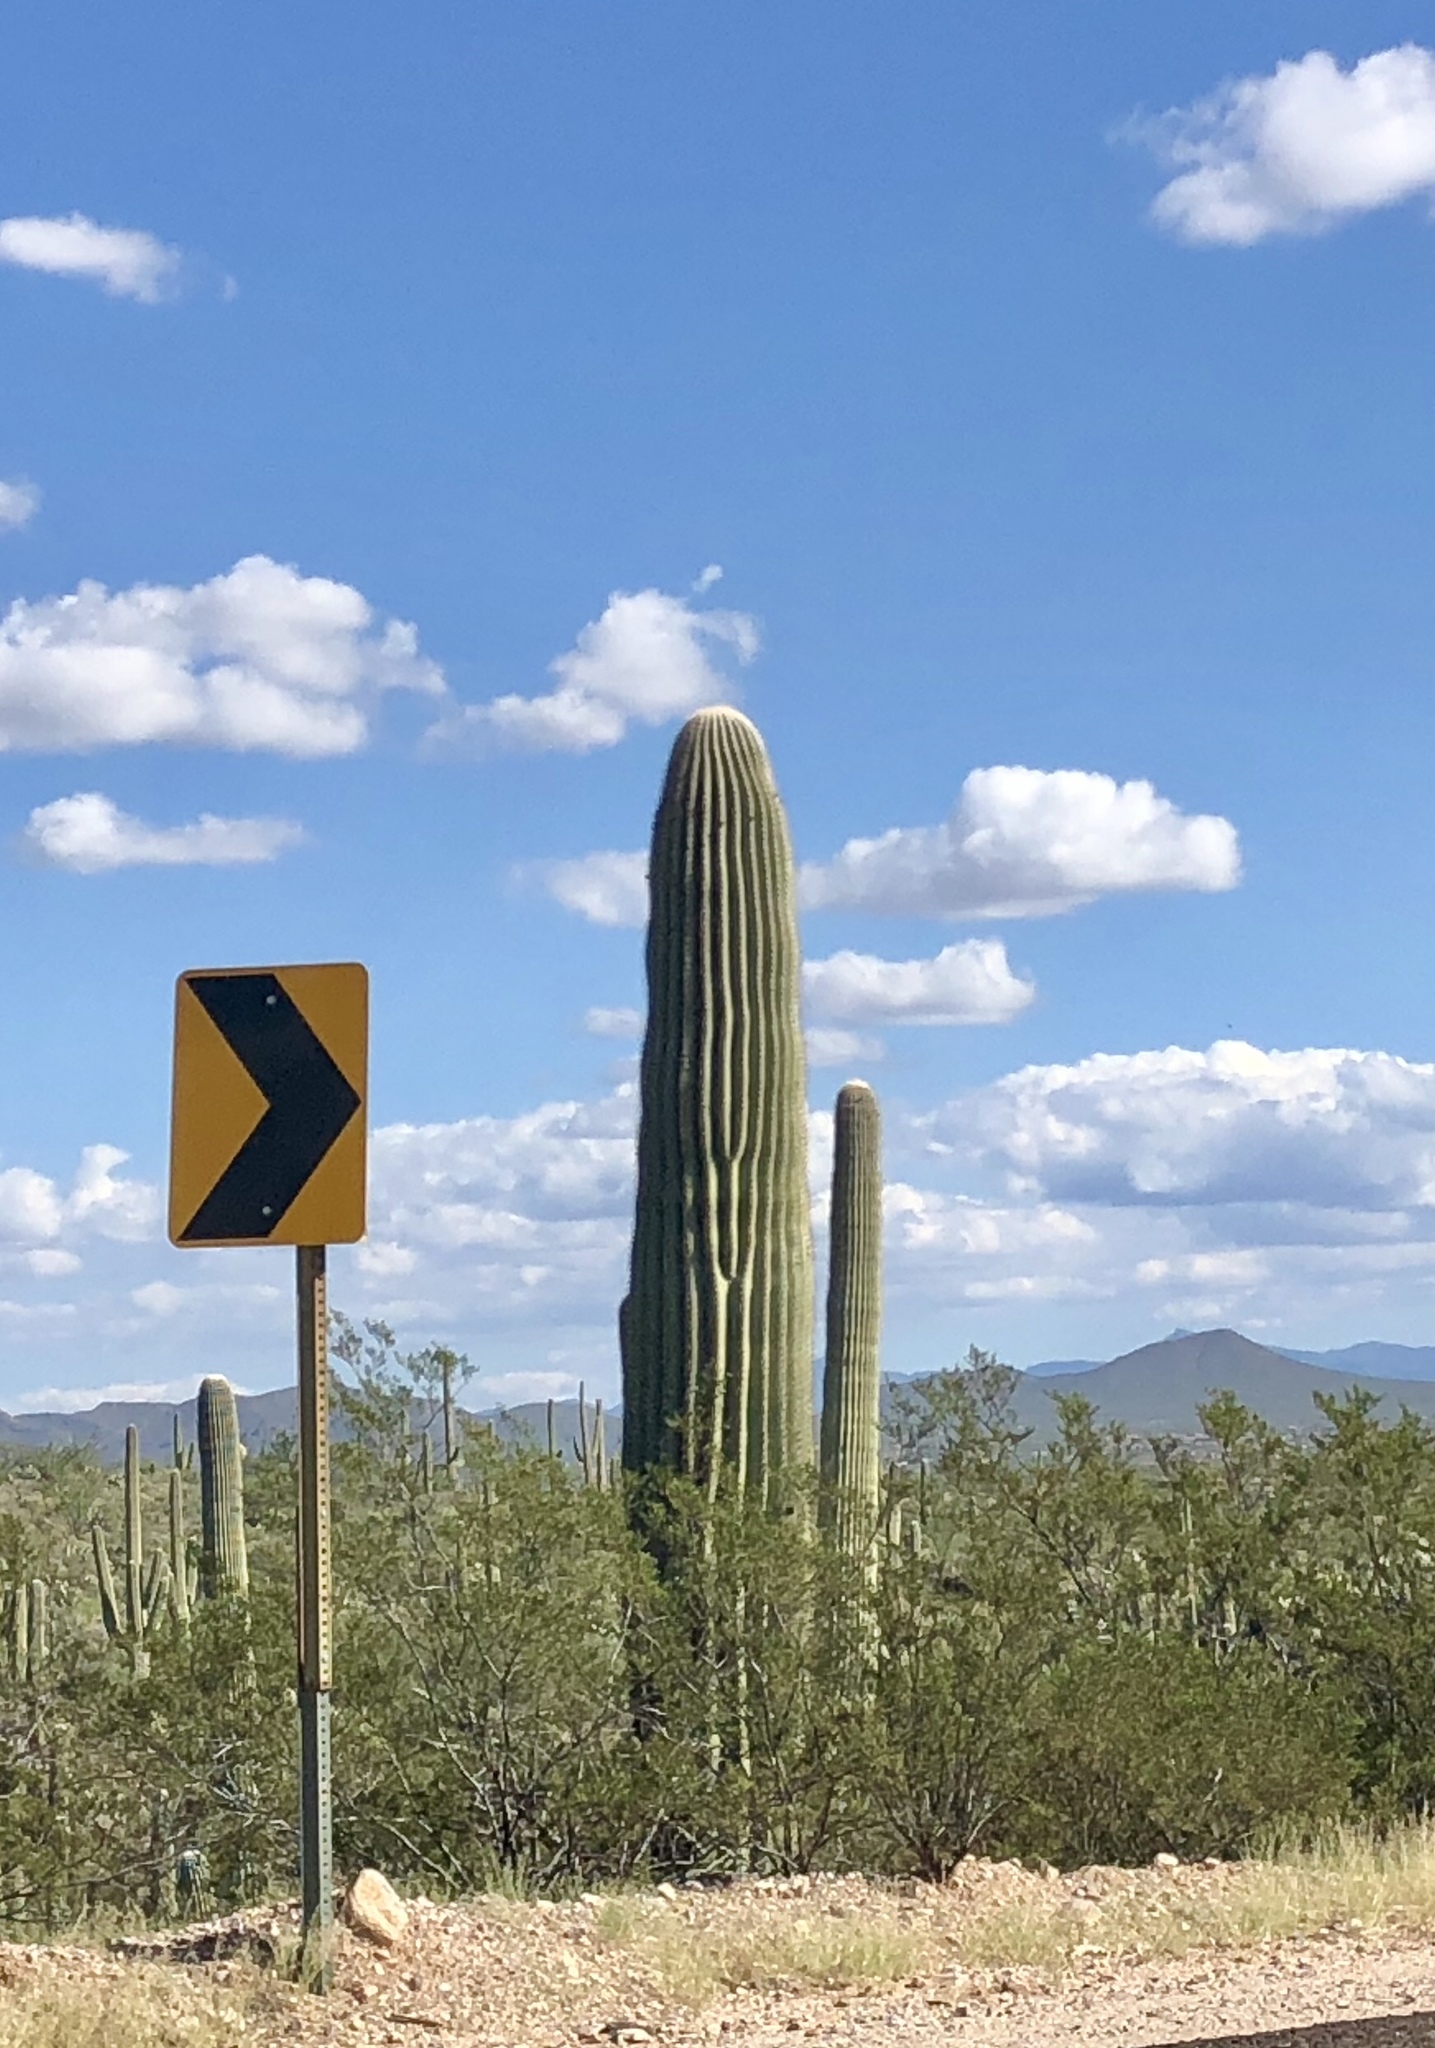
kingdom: Plantae
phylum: Tracheophyta
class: Magnoliopsida
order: Caryophyllales
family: Cactaceae
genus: Carnegiea
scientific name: Carnegiea gigantea
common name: Saguaro
